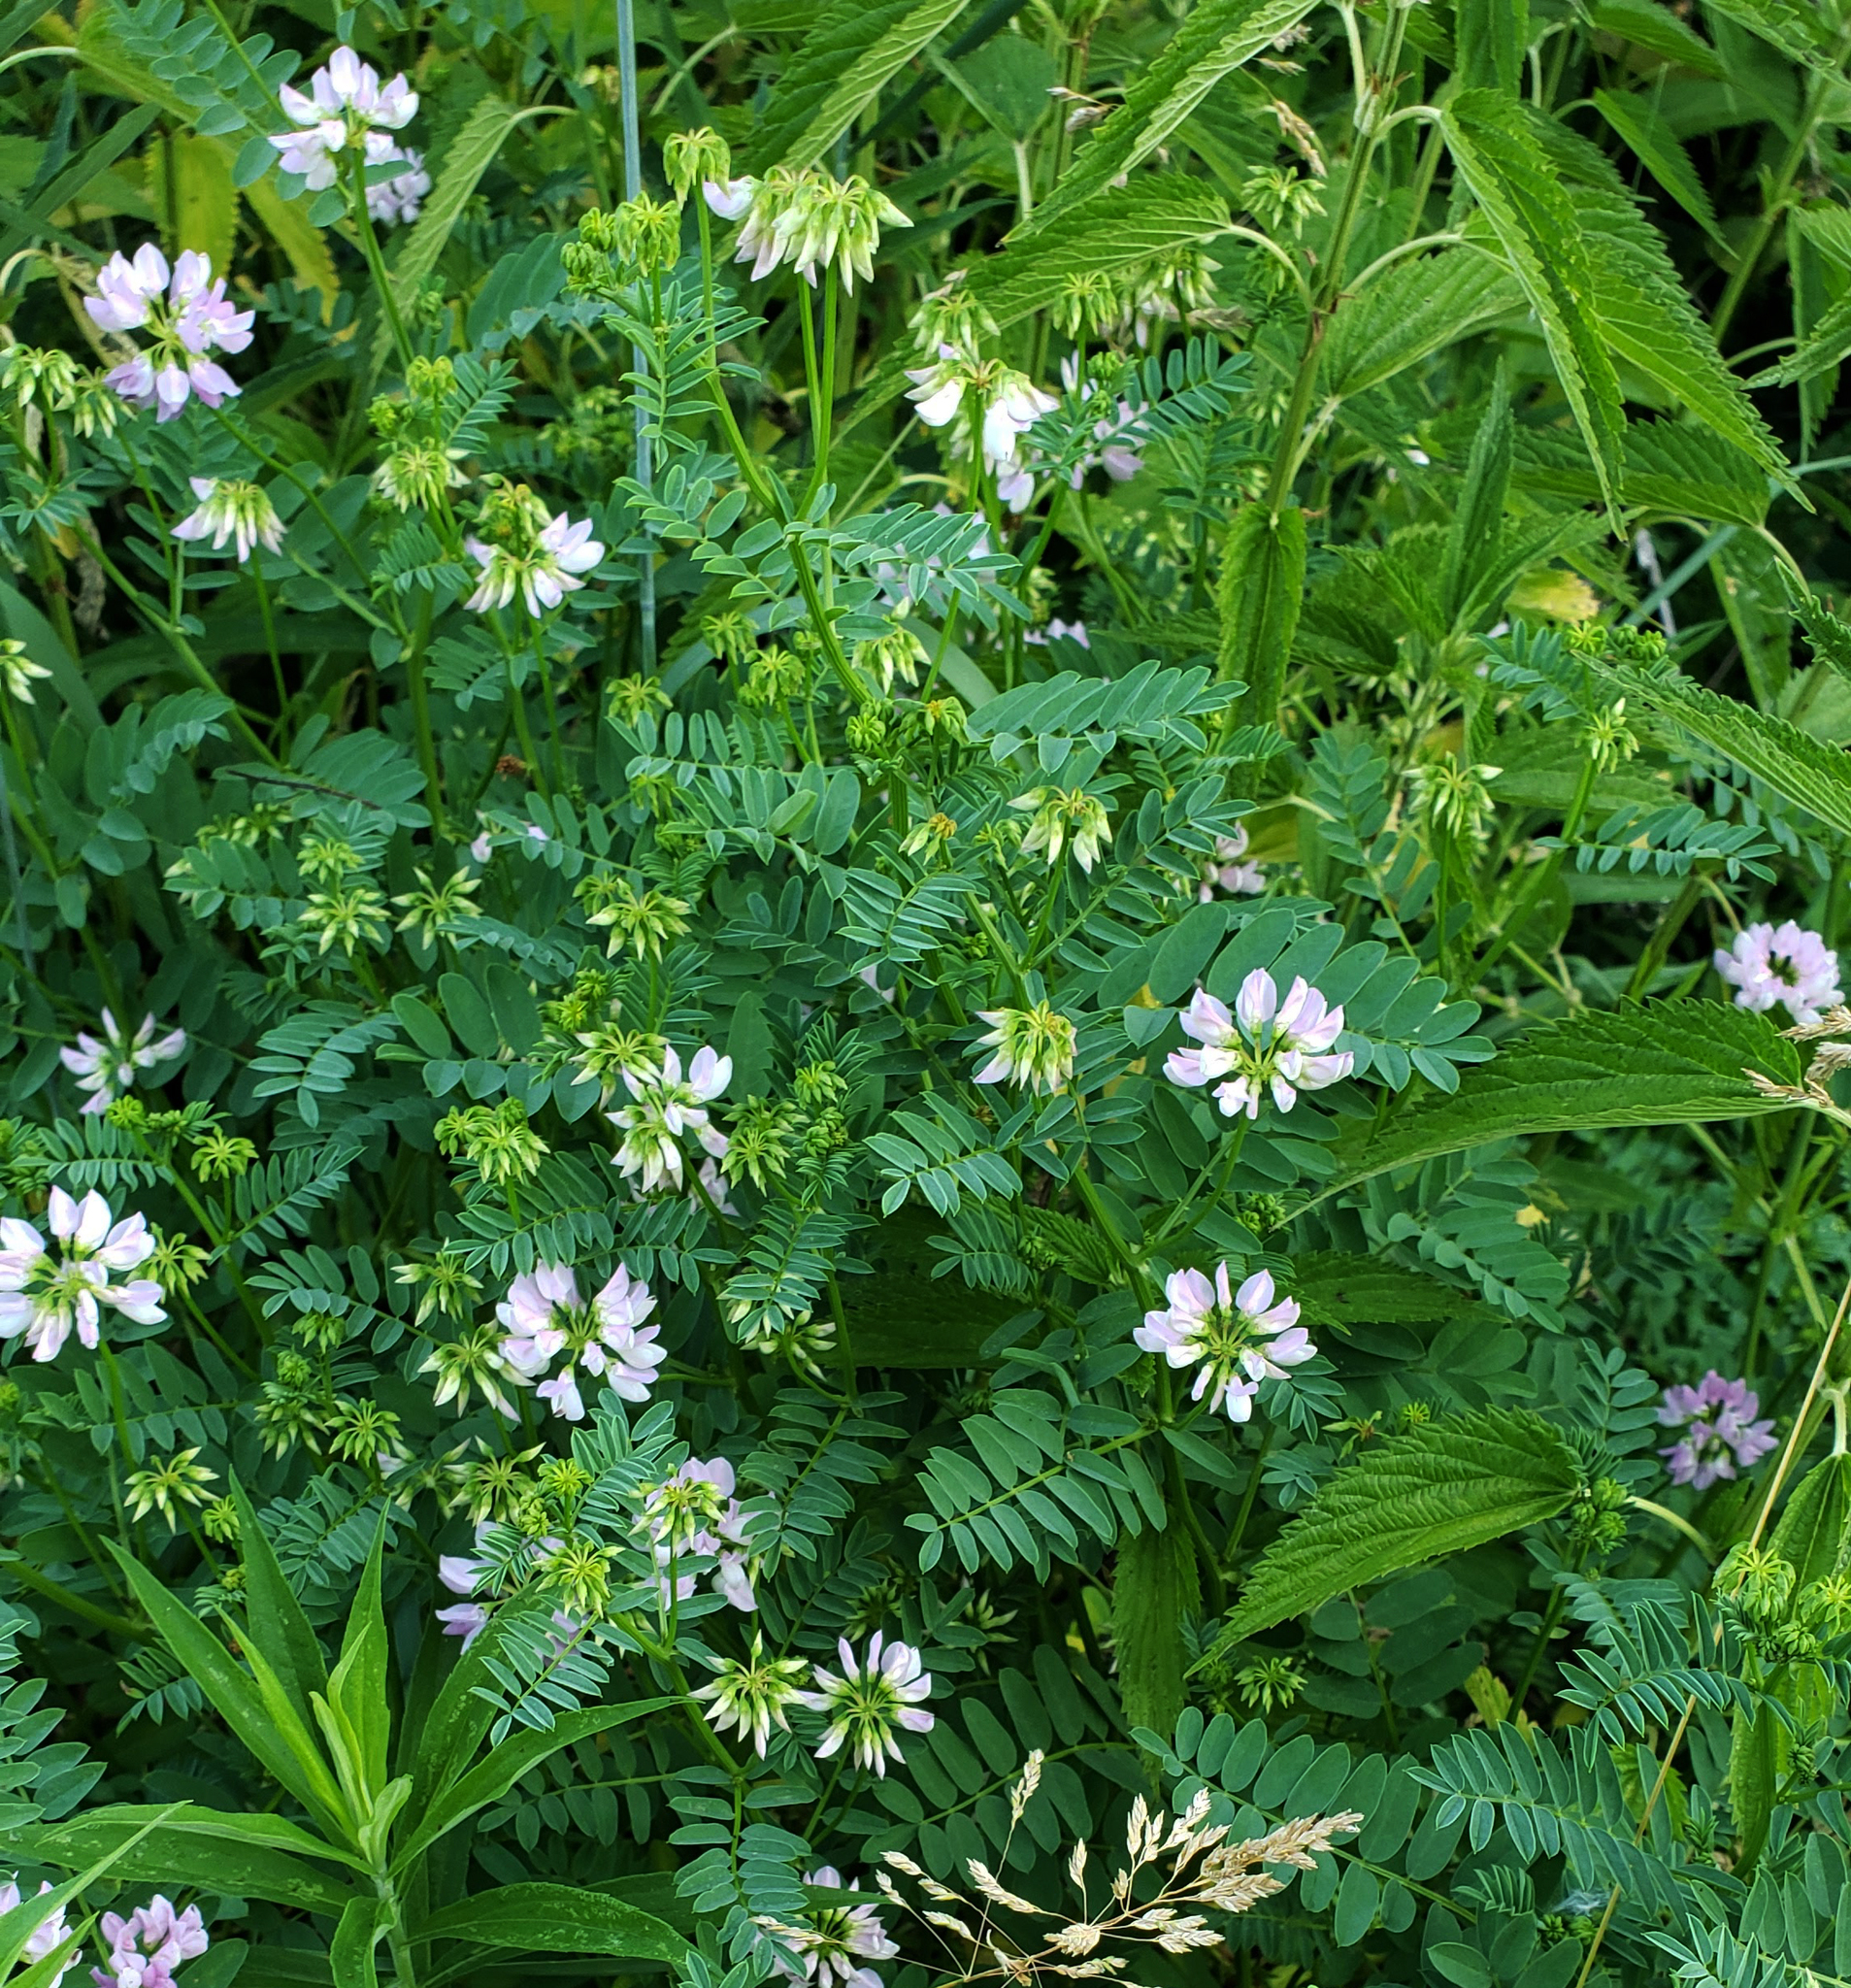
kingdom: Plantae
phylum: Tracheophyta
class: Magnoliopsida
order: Fabales
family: Fabaceae
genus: Coronilla
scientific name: Coronilla varia
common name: Crownvetch
